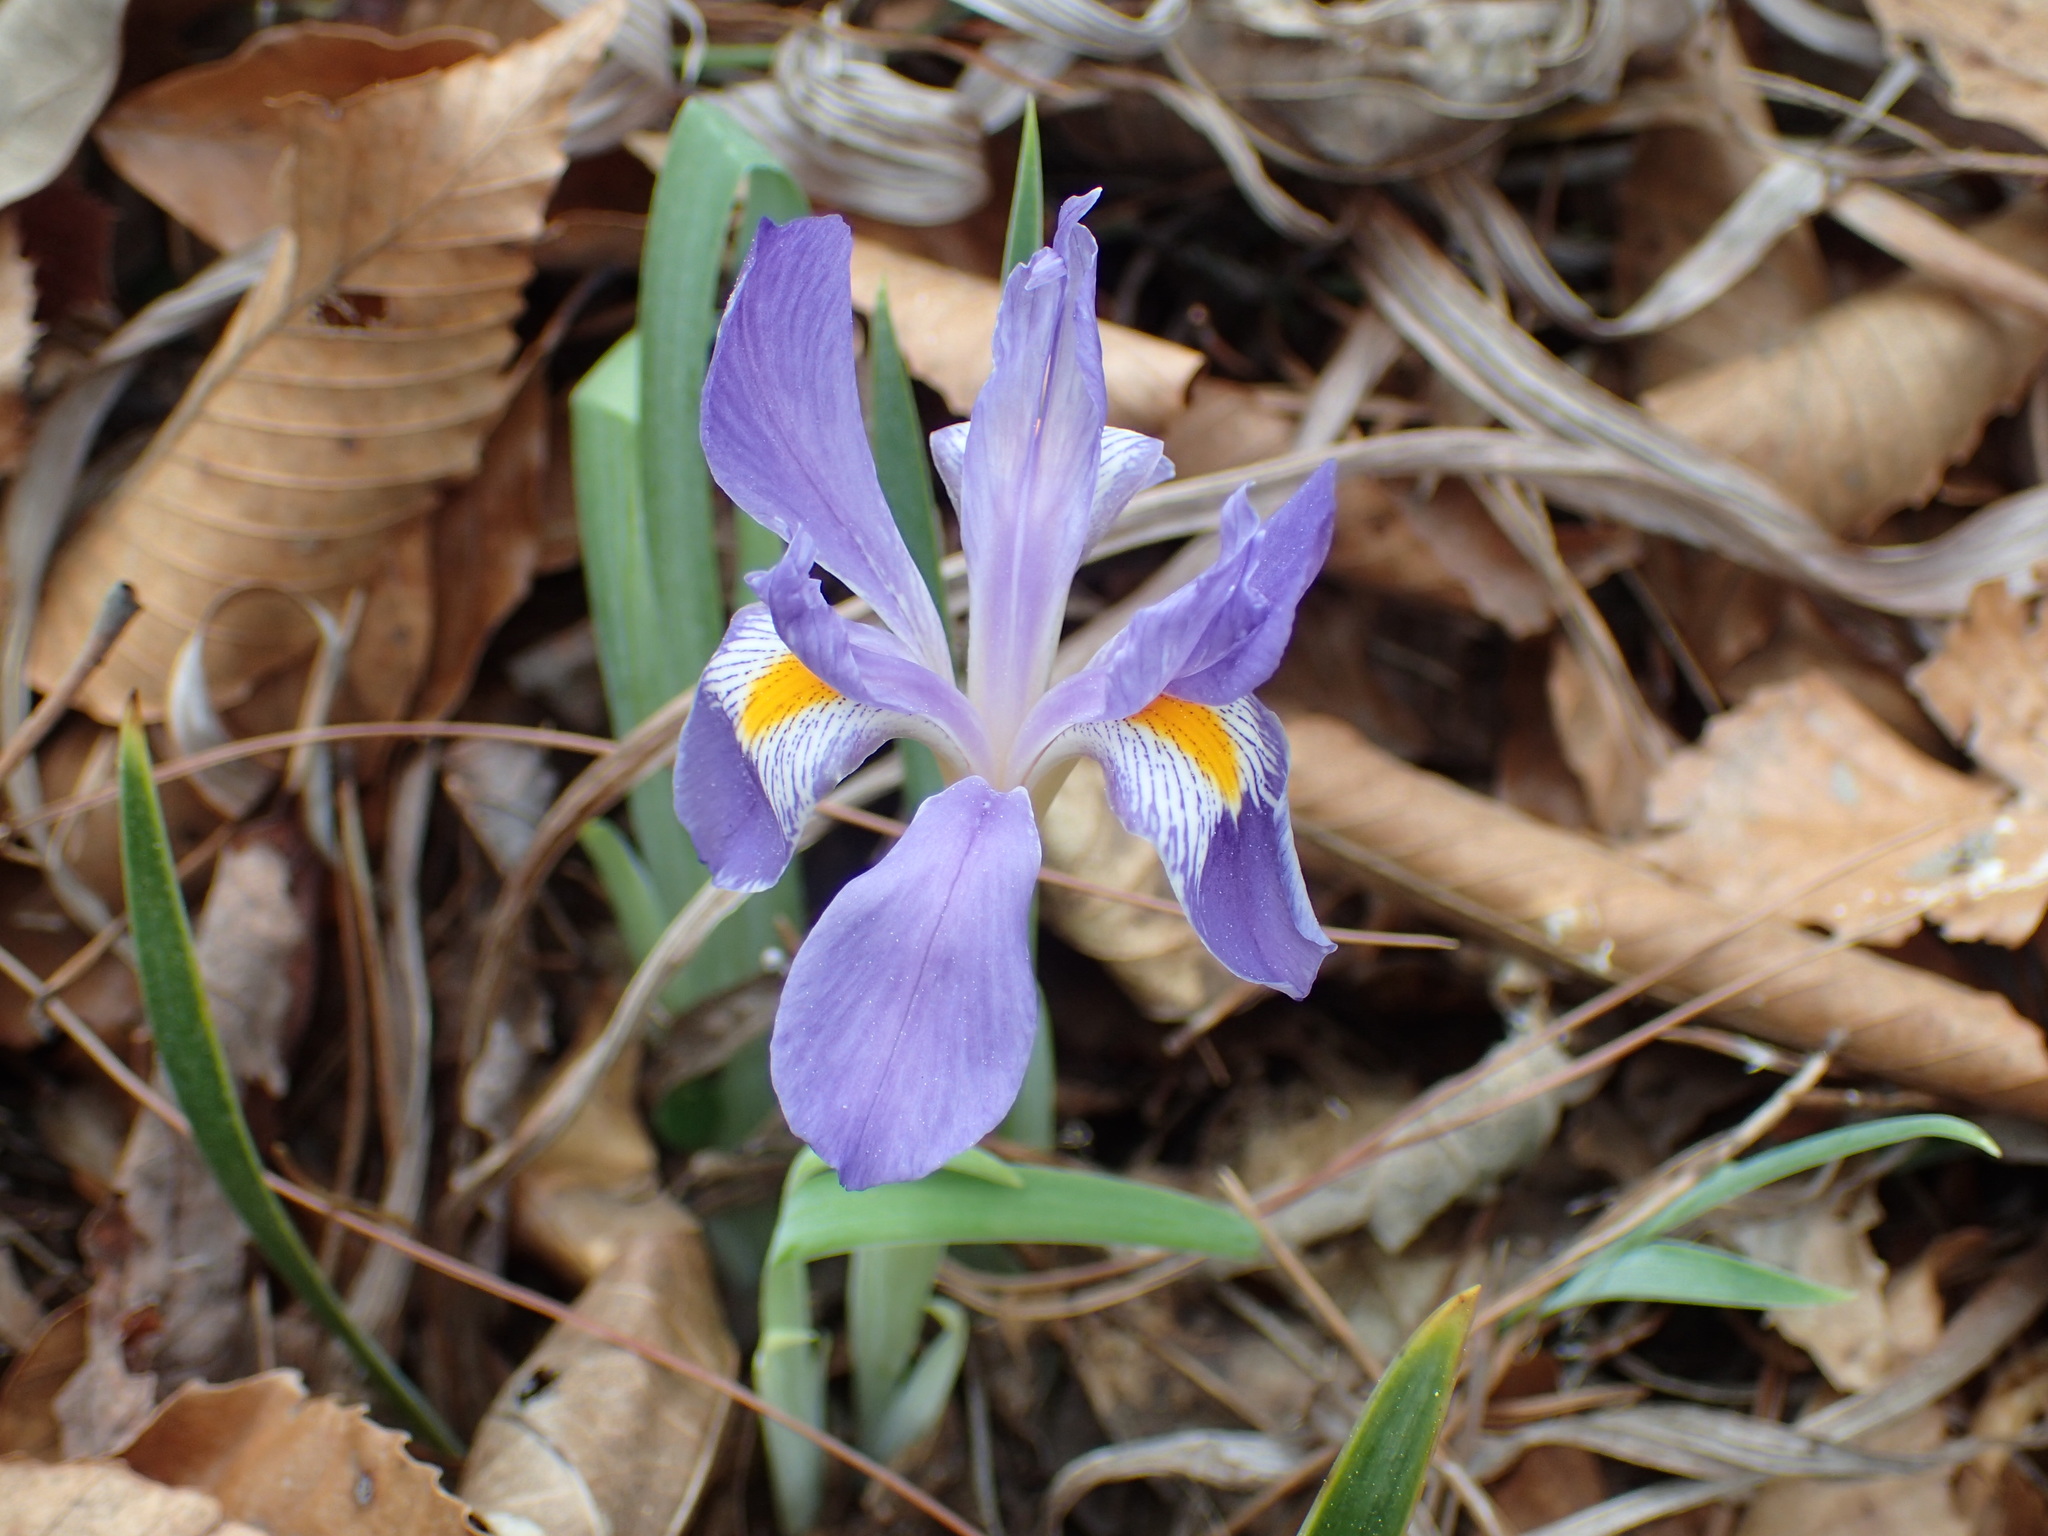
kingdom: Plantae
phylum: Tracheophyta
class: Liliopsida
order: Asparagales
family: Iridaceae
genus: Iris
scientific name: Iris verna
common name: Dwarf iris
